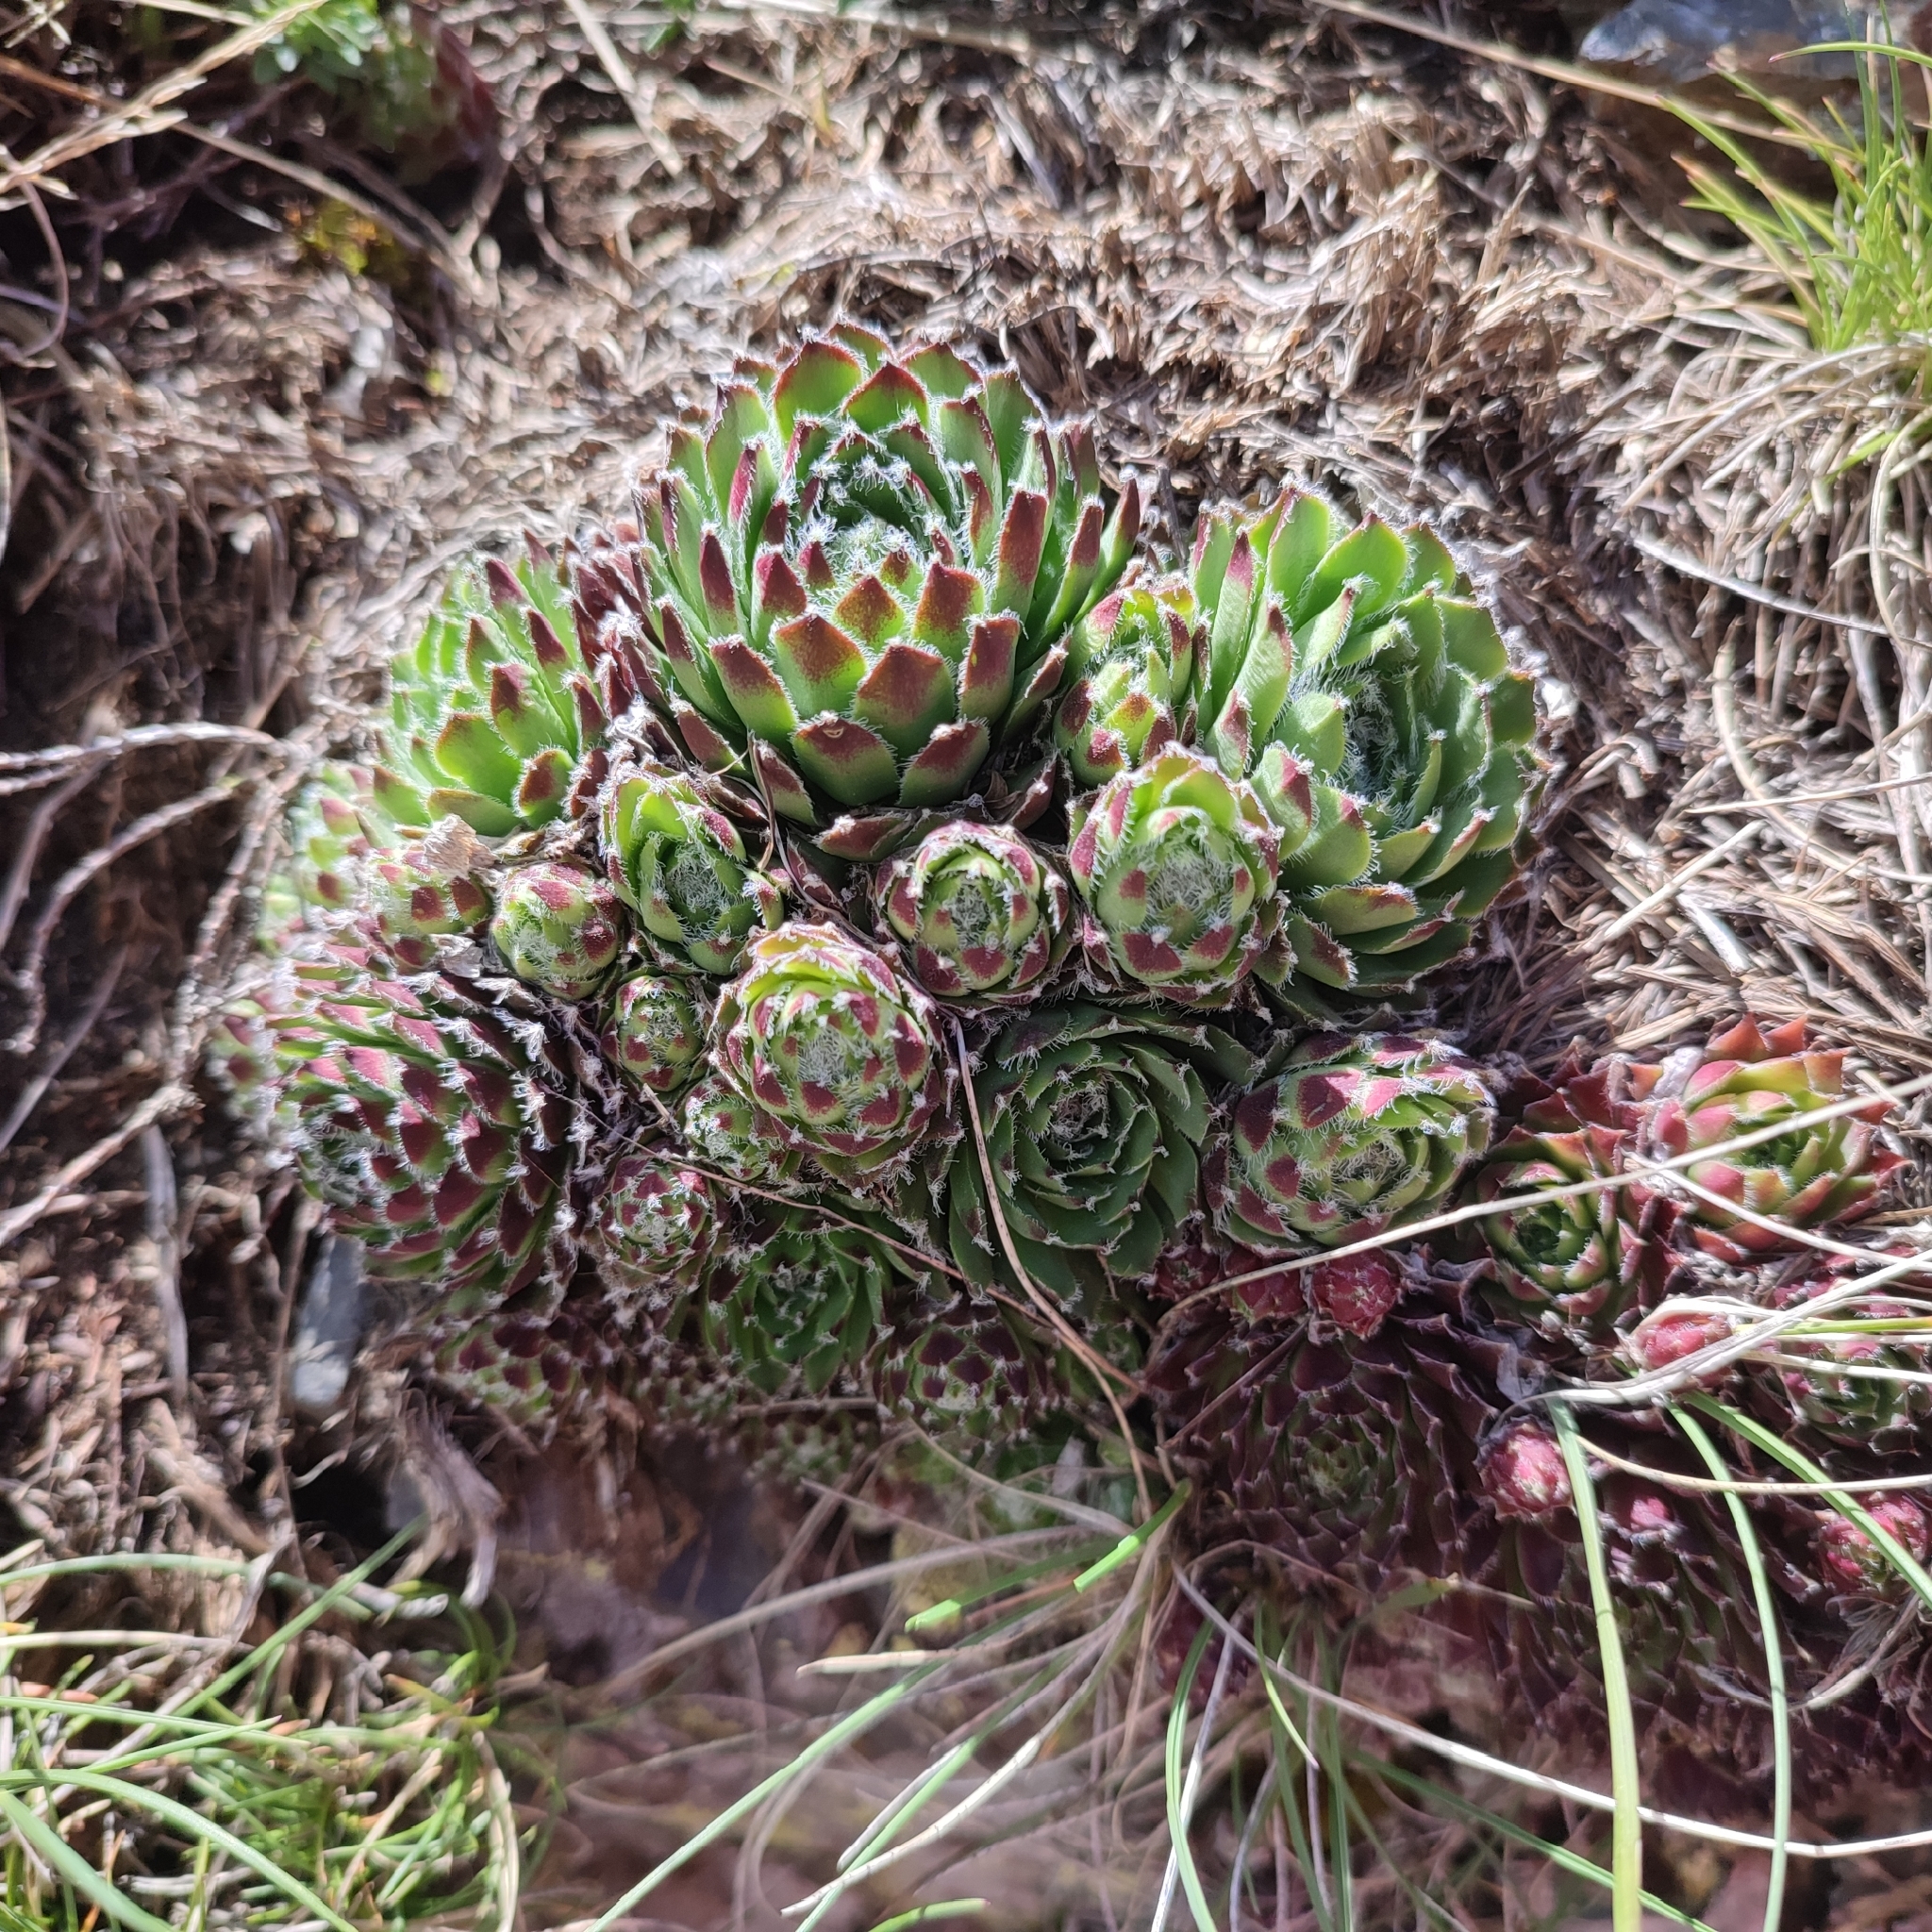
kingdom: Plantae
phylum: Tracheophyta
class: Magnoliopsida
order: Saxifragales
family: Crassulaceae
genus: Sempervivum
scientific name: Sempervivum alatum
